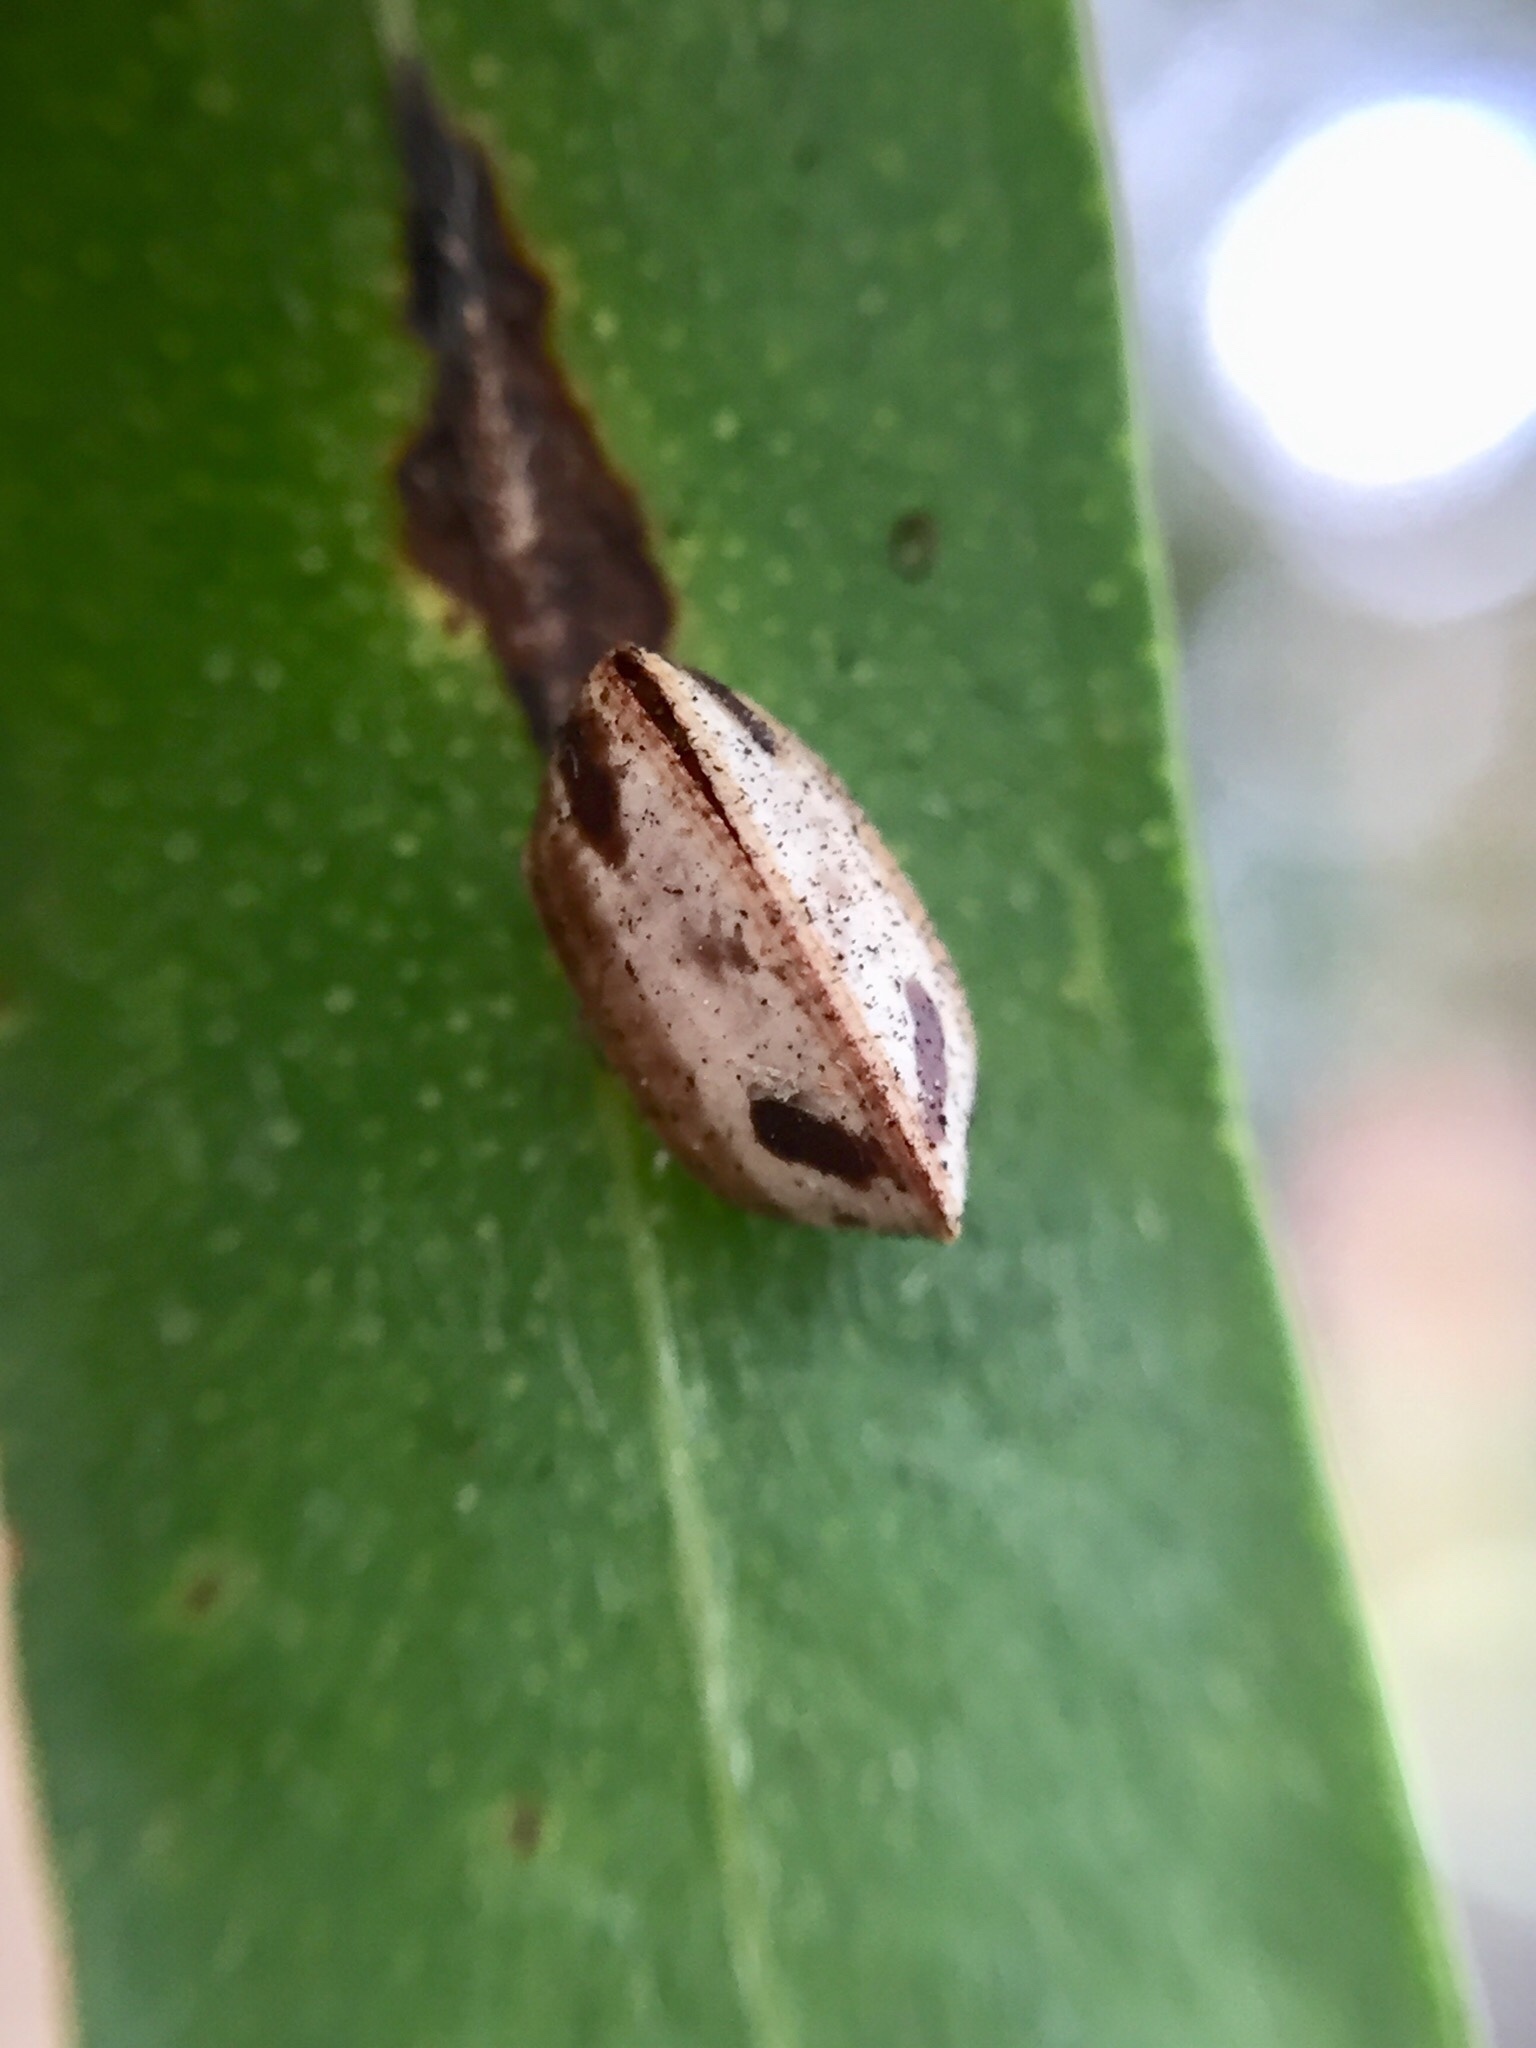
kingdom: Animalia
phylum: Arthropoda
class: Insecta
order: Blattodea
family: Ectobiidae
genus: Balta
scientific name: Balta bicolor
